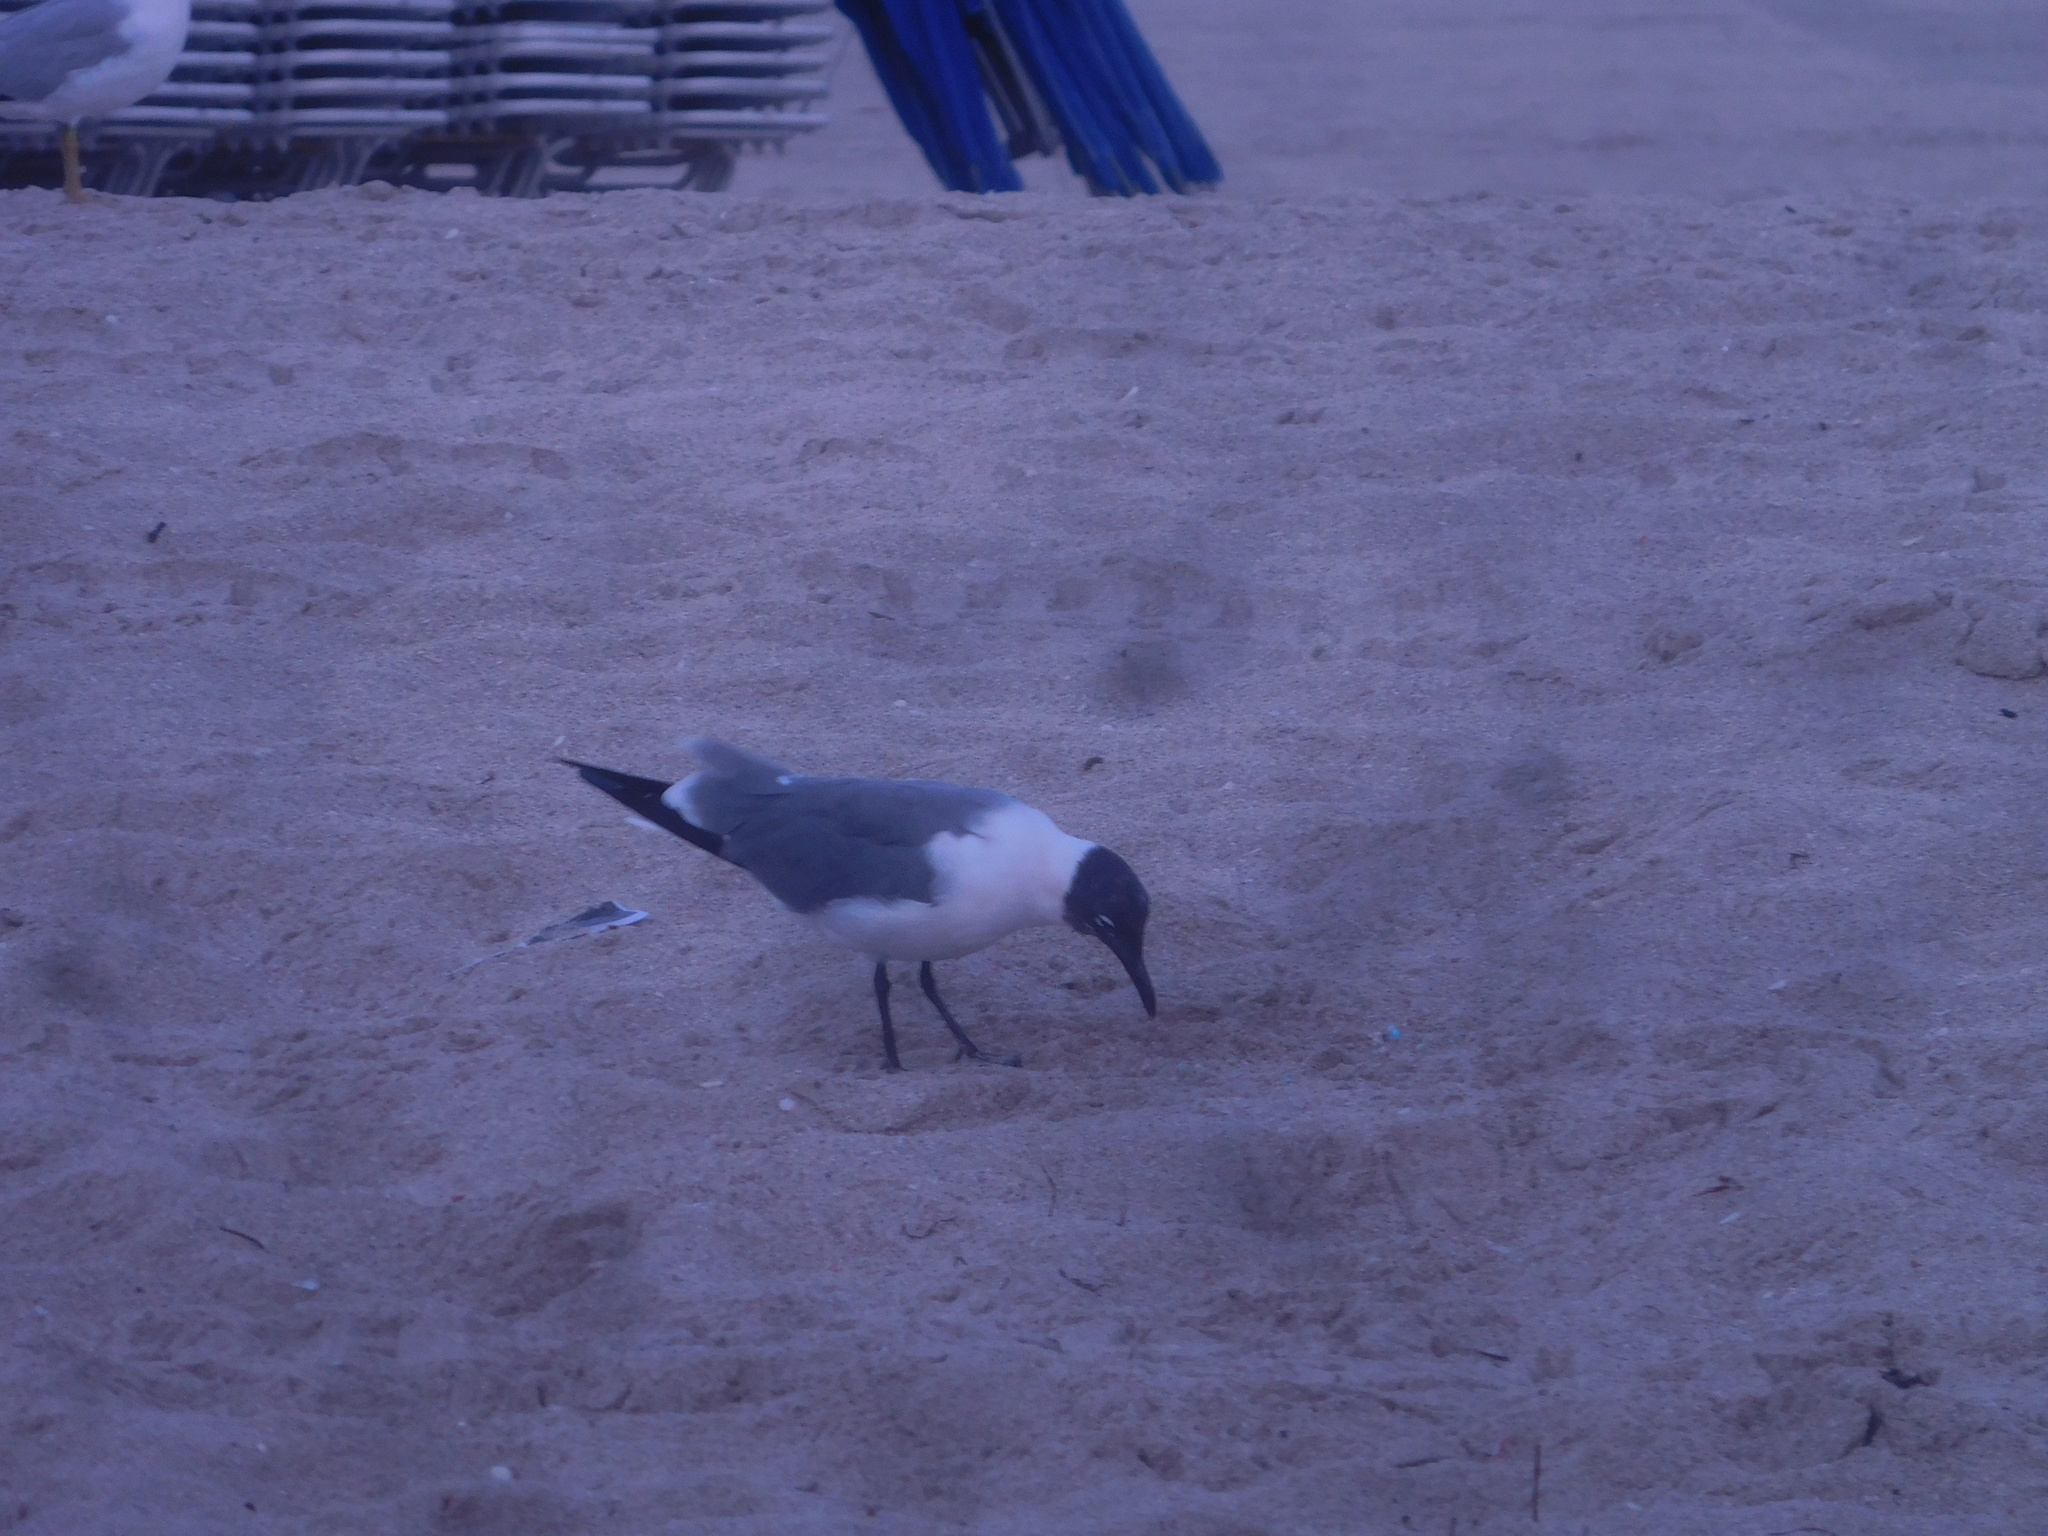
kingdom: Animalia
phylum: Chordata
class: Aves
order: Charadriiformes
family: Laridae
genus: Leucophaeus
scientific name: Leucophaeus atricilla
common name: Laughing gull
